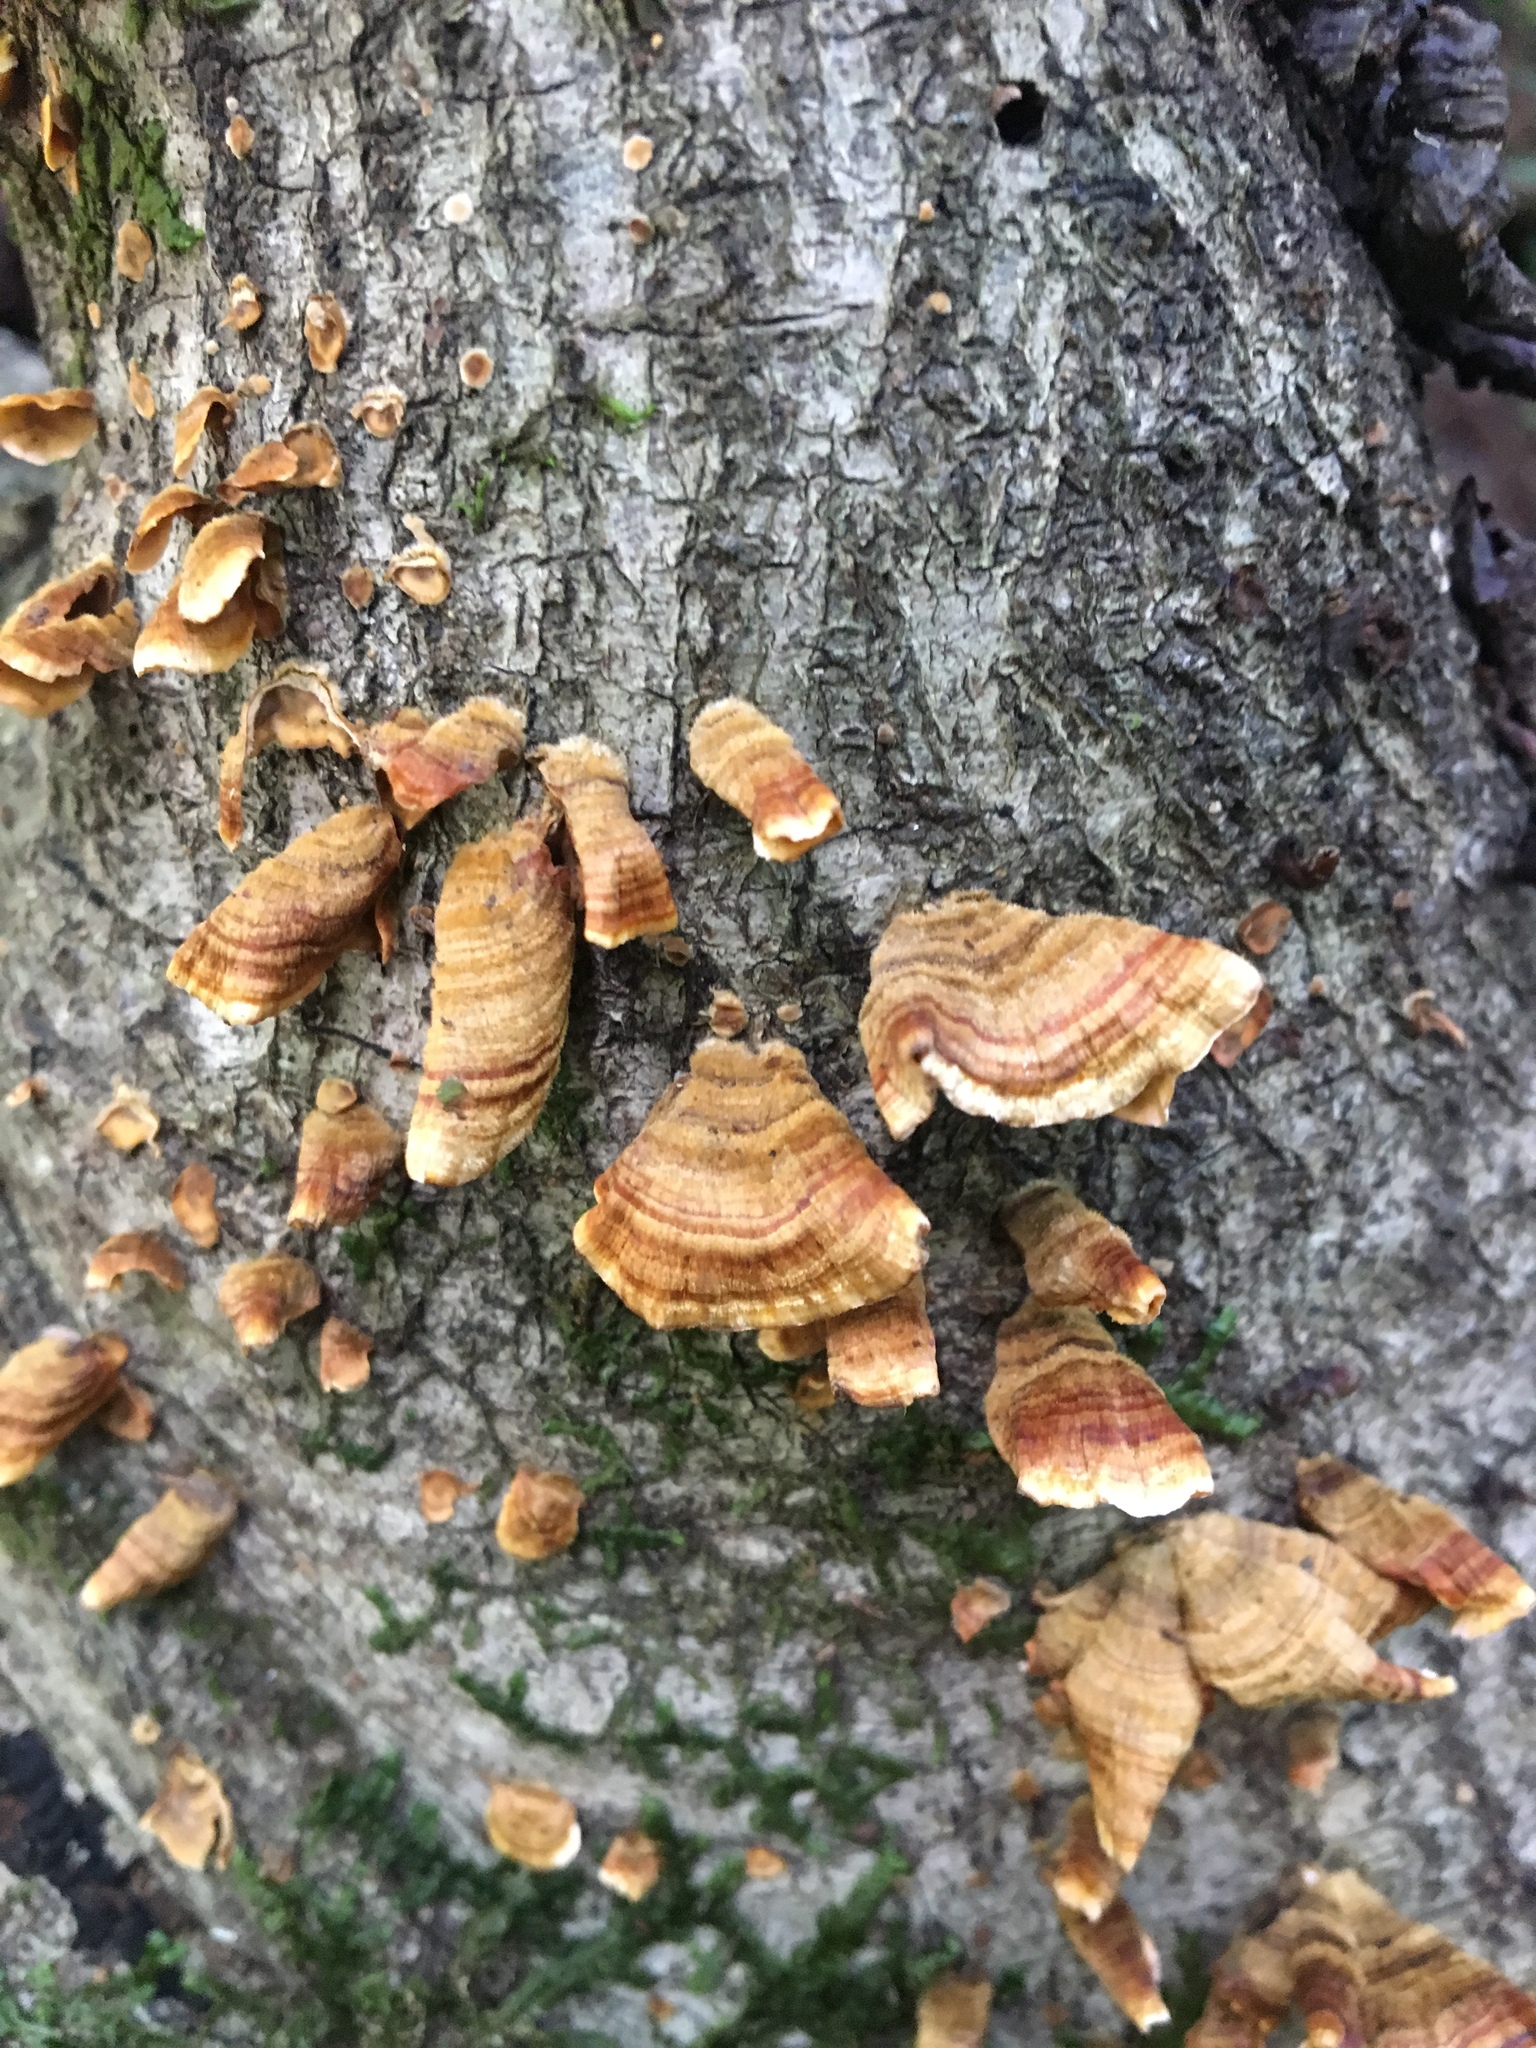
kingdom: Fungi
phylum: Basidiomycota
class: Agaricomycetes
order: Russulales
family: Stereaceae
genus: Stereum
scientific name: Stereum hirsutum
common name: Hairy curtain crust
